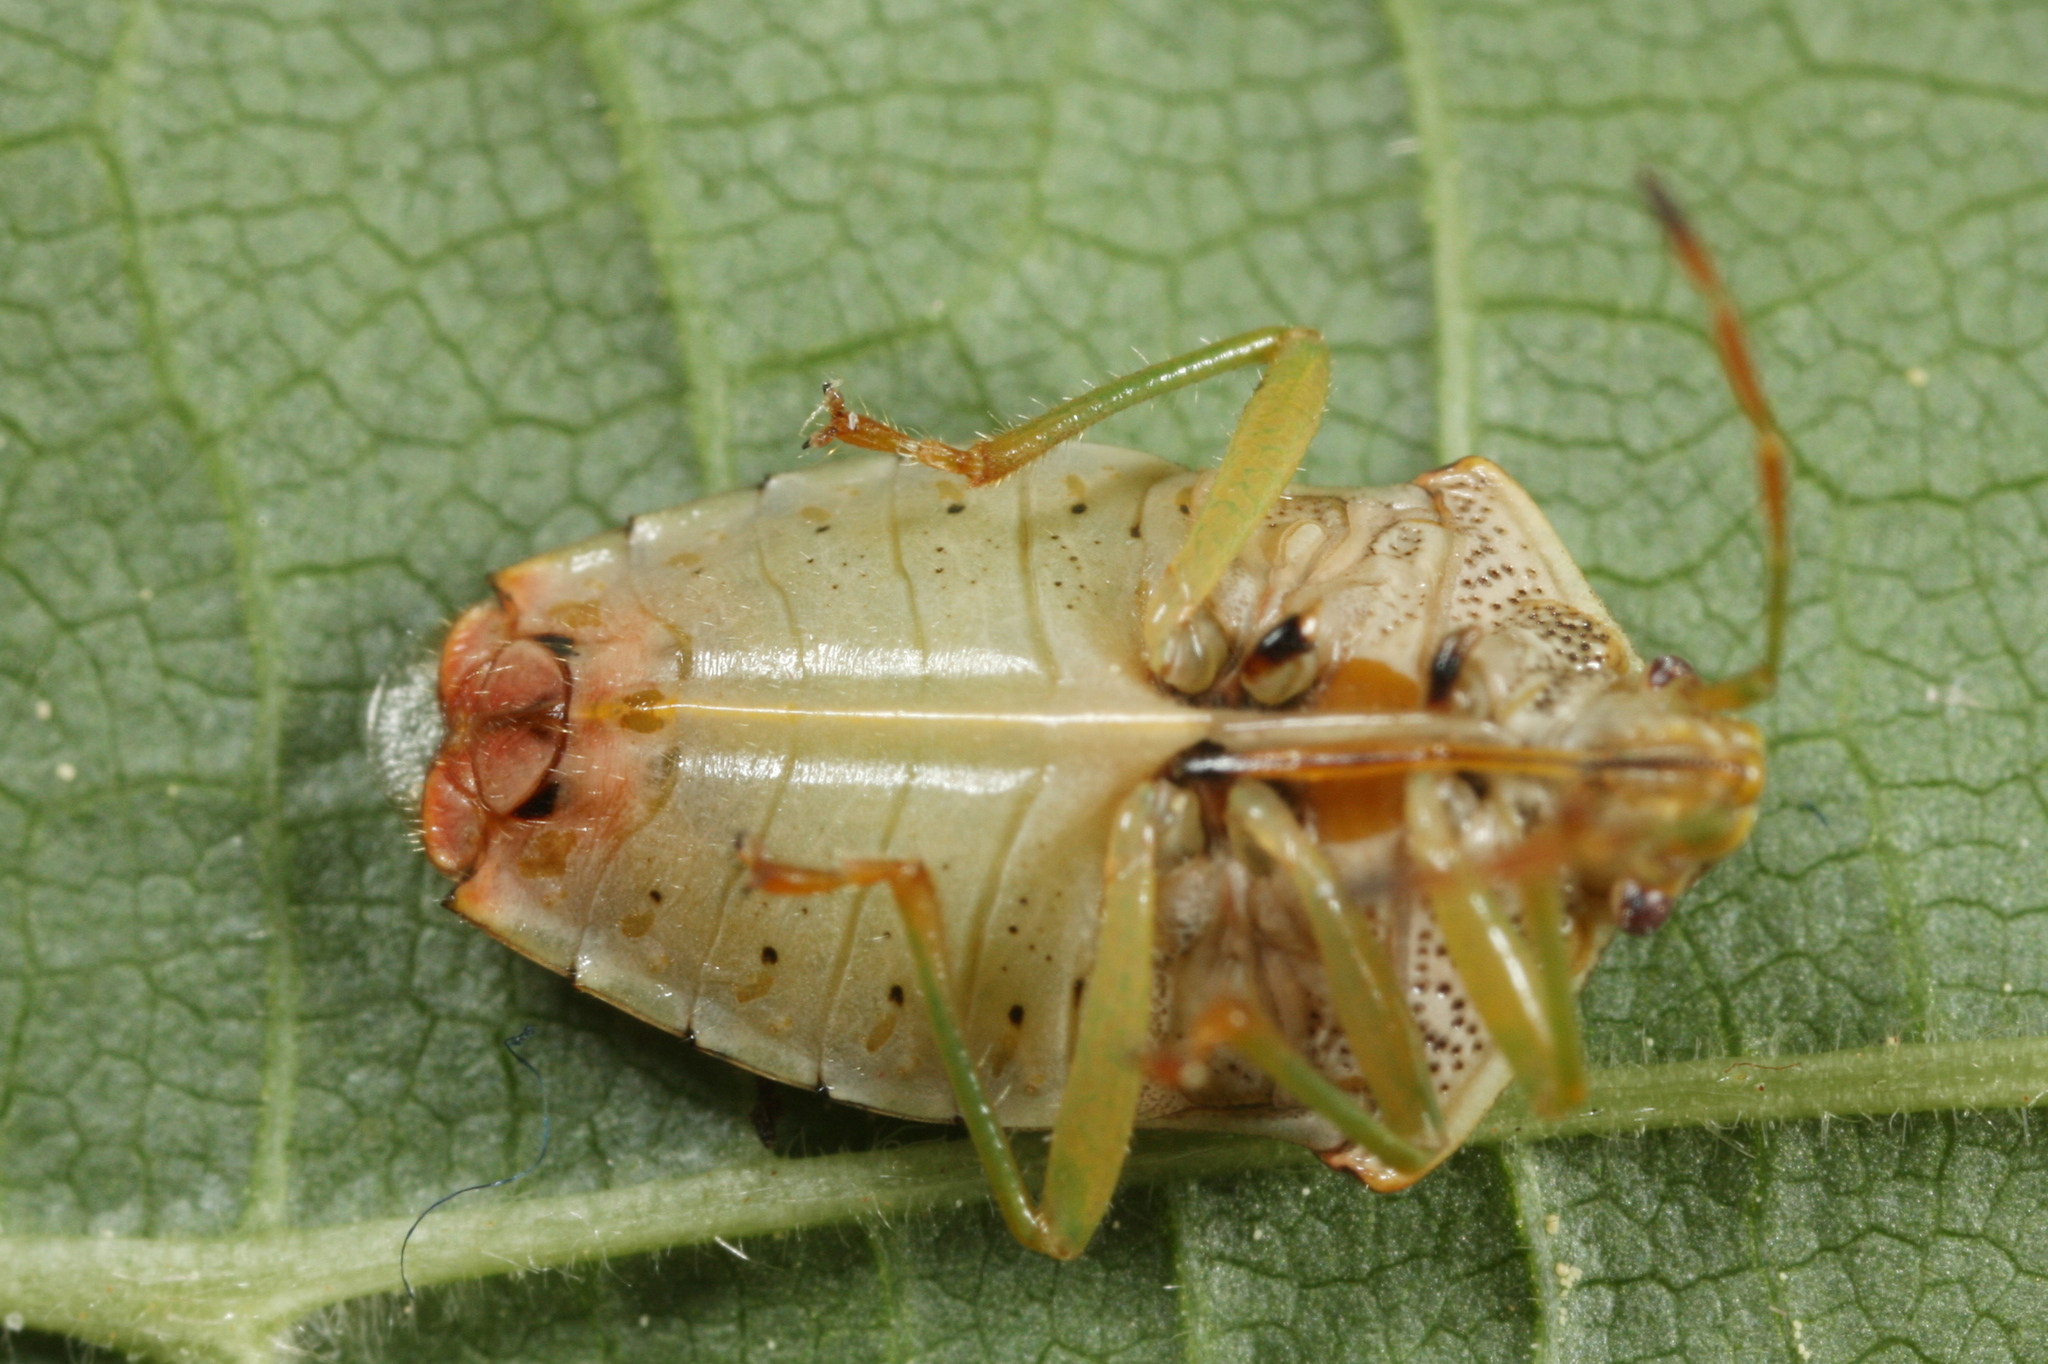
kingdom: Animalia
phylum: Arthropoda
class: Insecta
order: Hemiptera
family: Acanthosomatidae
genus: Elasmucha
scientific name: Elasmucha grisea
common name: Parent bug
